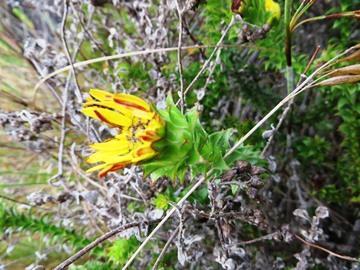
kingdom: Plantae
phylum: Tracheophyta
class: Magnoliopsida
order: Asterales
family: Asteraceae
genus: Oedera
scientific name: Oedera imbricata
